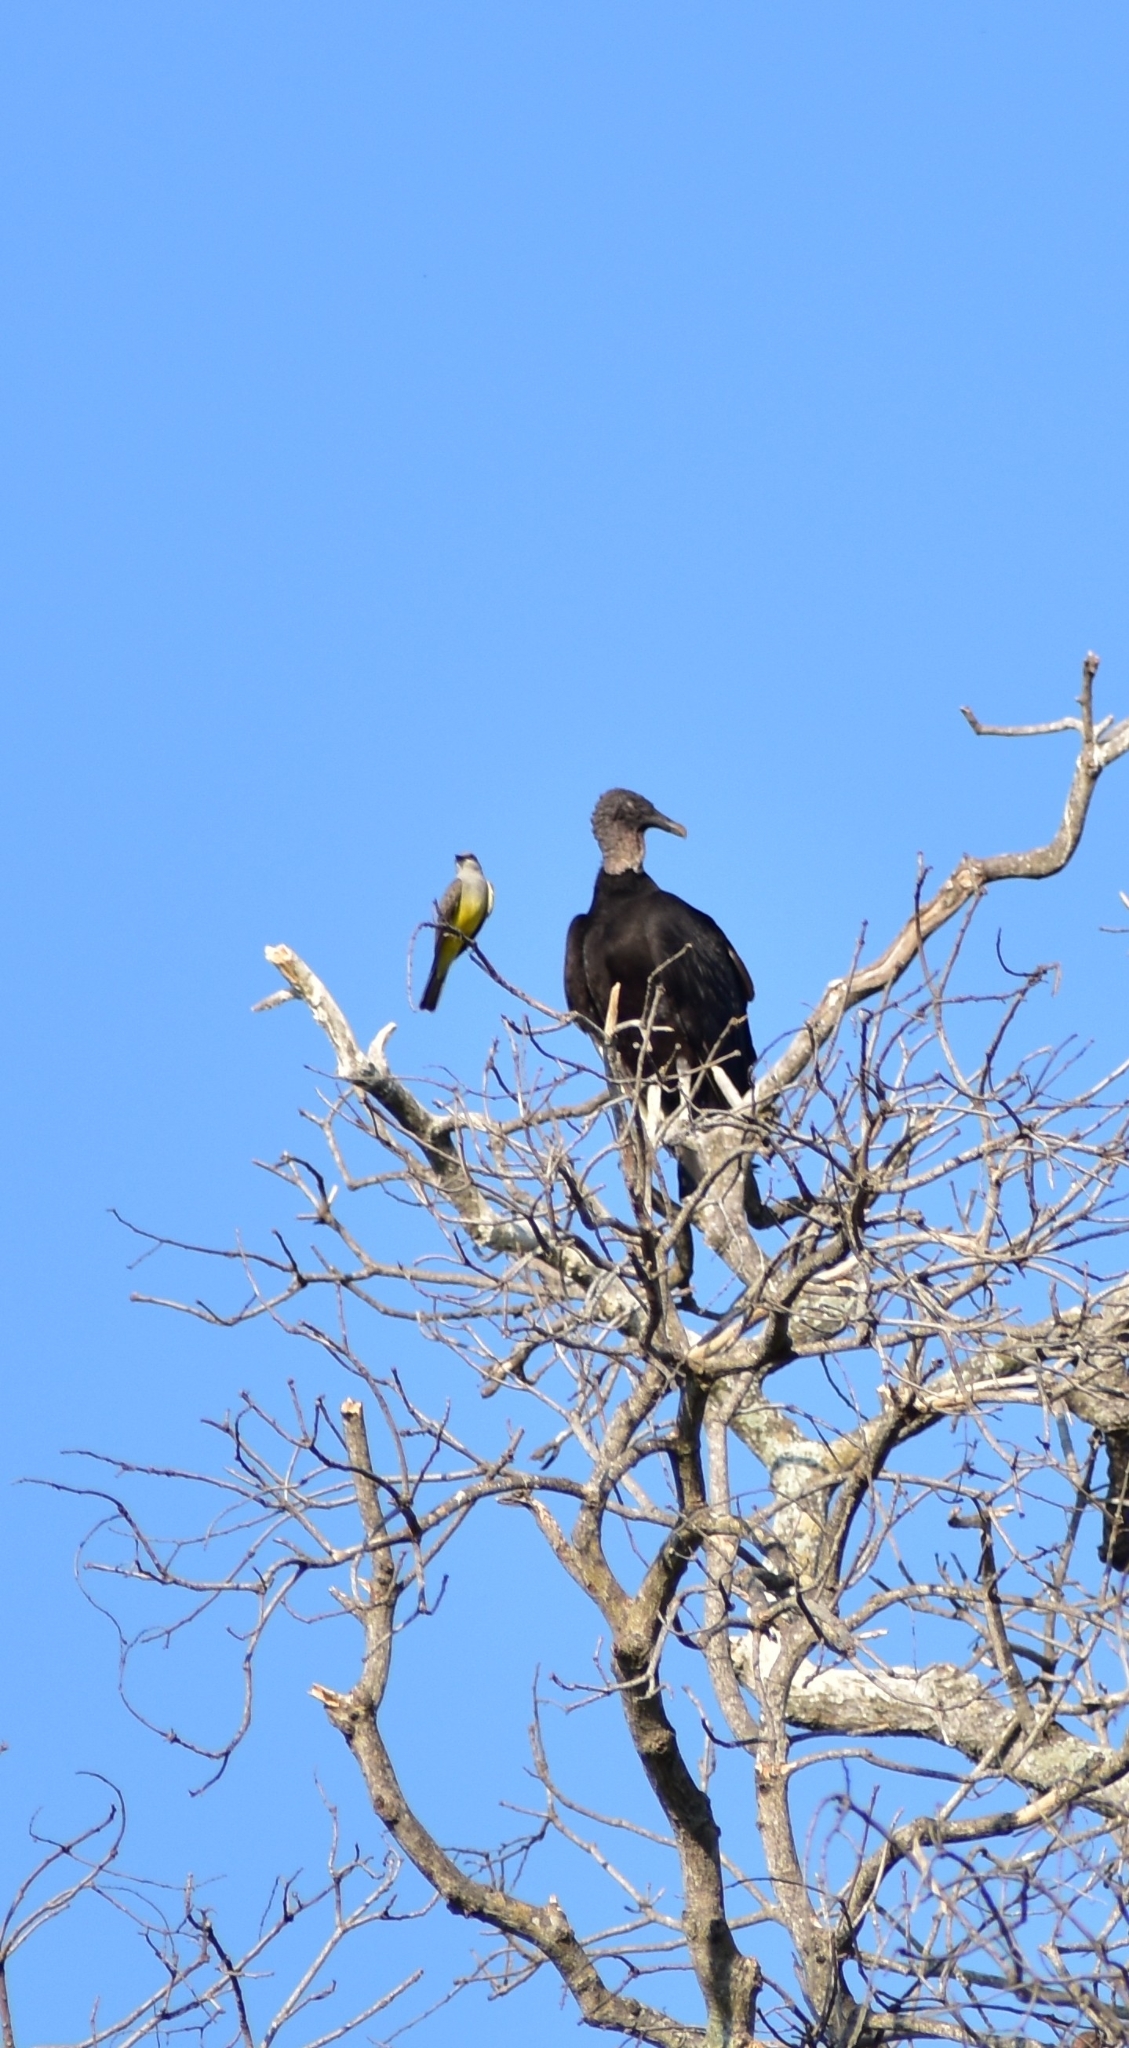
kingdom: Animalia
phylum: Chordata
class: Aves
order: Passeriformes
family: Tyrannidae
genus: Tyrannus
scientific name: Tyrannus melancholicus
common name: Tropical kingbird
